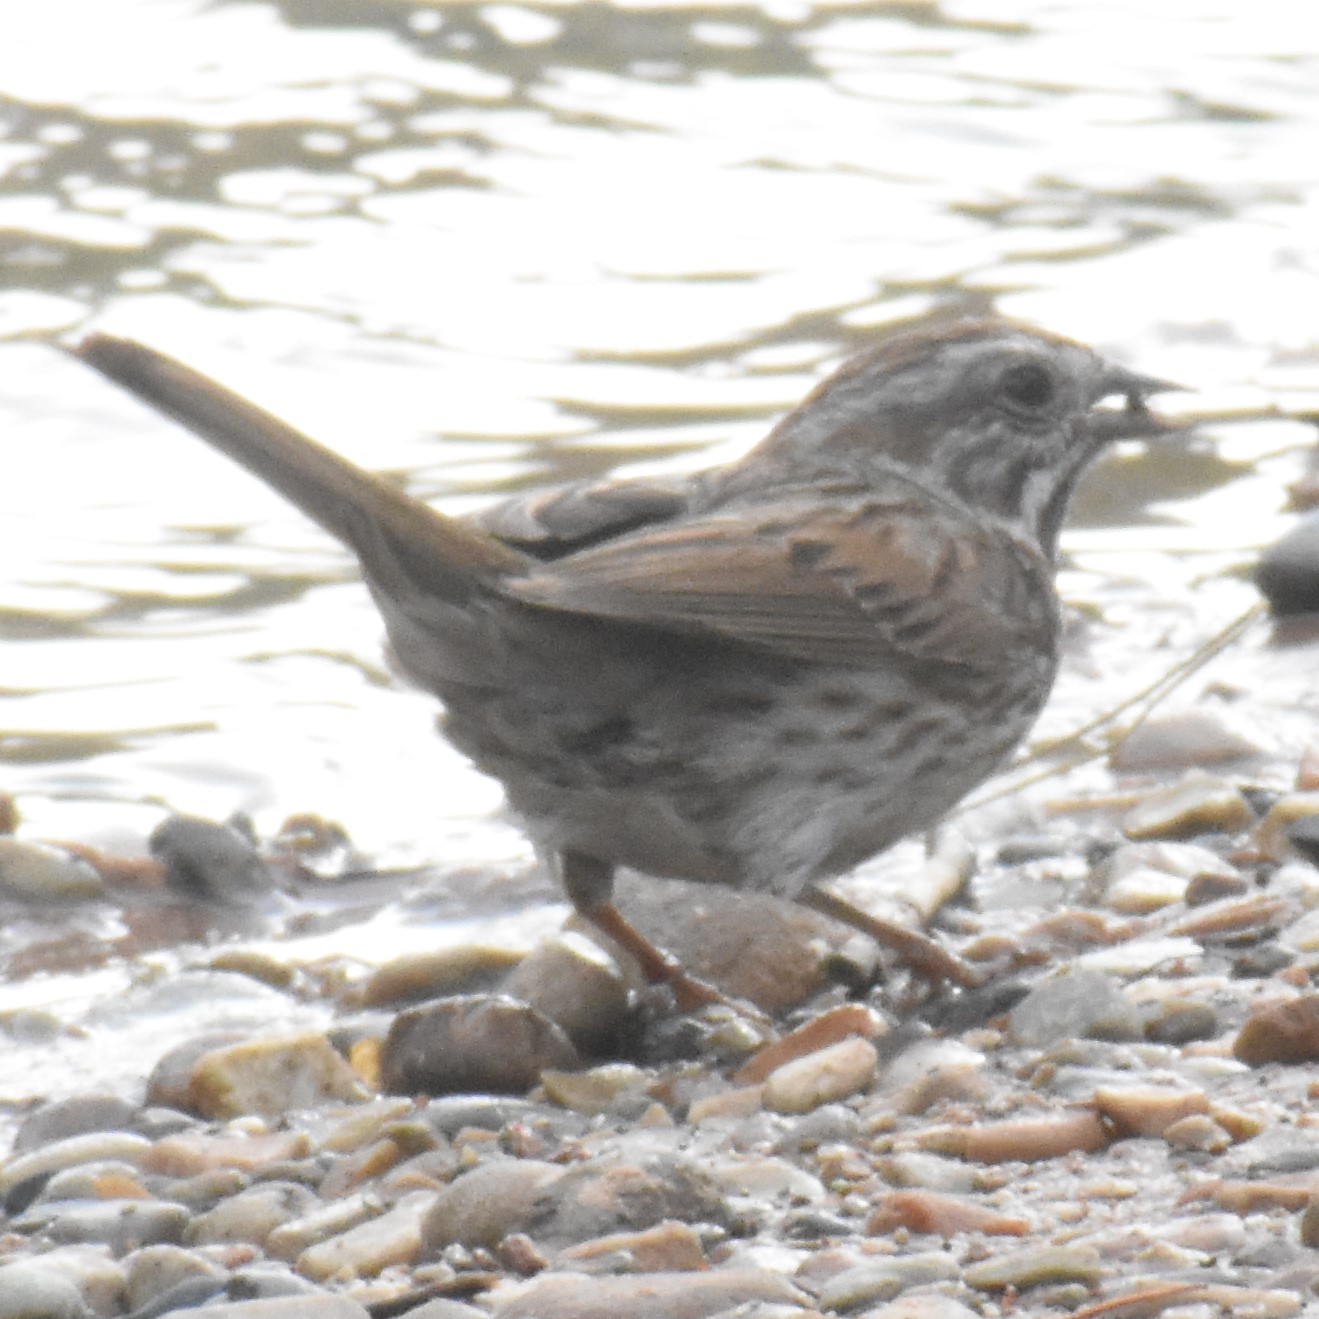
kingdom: Animalia
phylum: Chordata
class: Aves
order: Passeriformes
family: Passerellidae
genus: Melospiza
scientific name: Melospiza melodia
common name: Song sparrow
